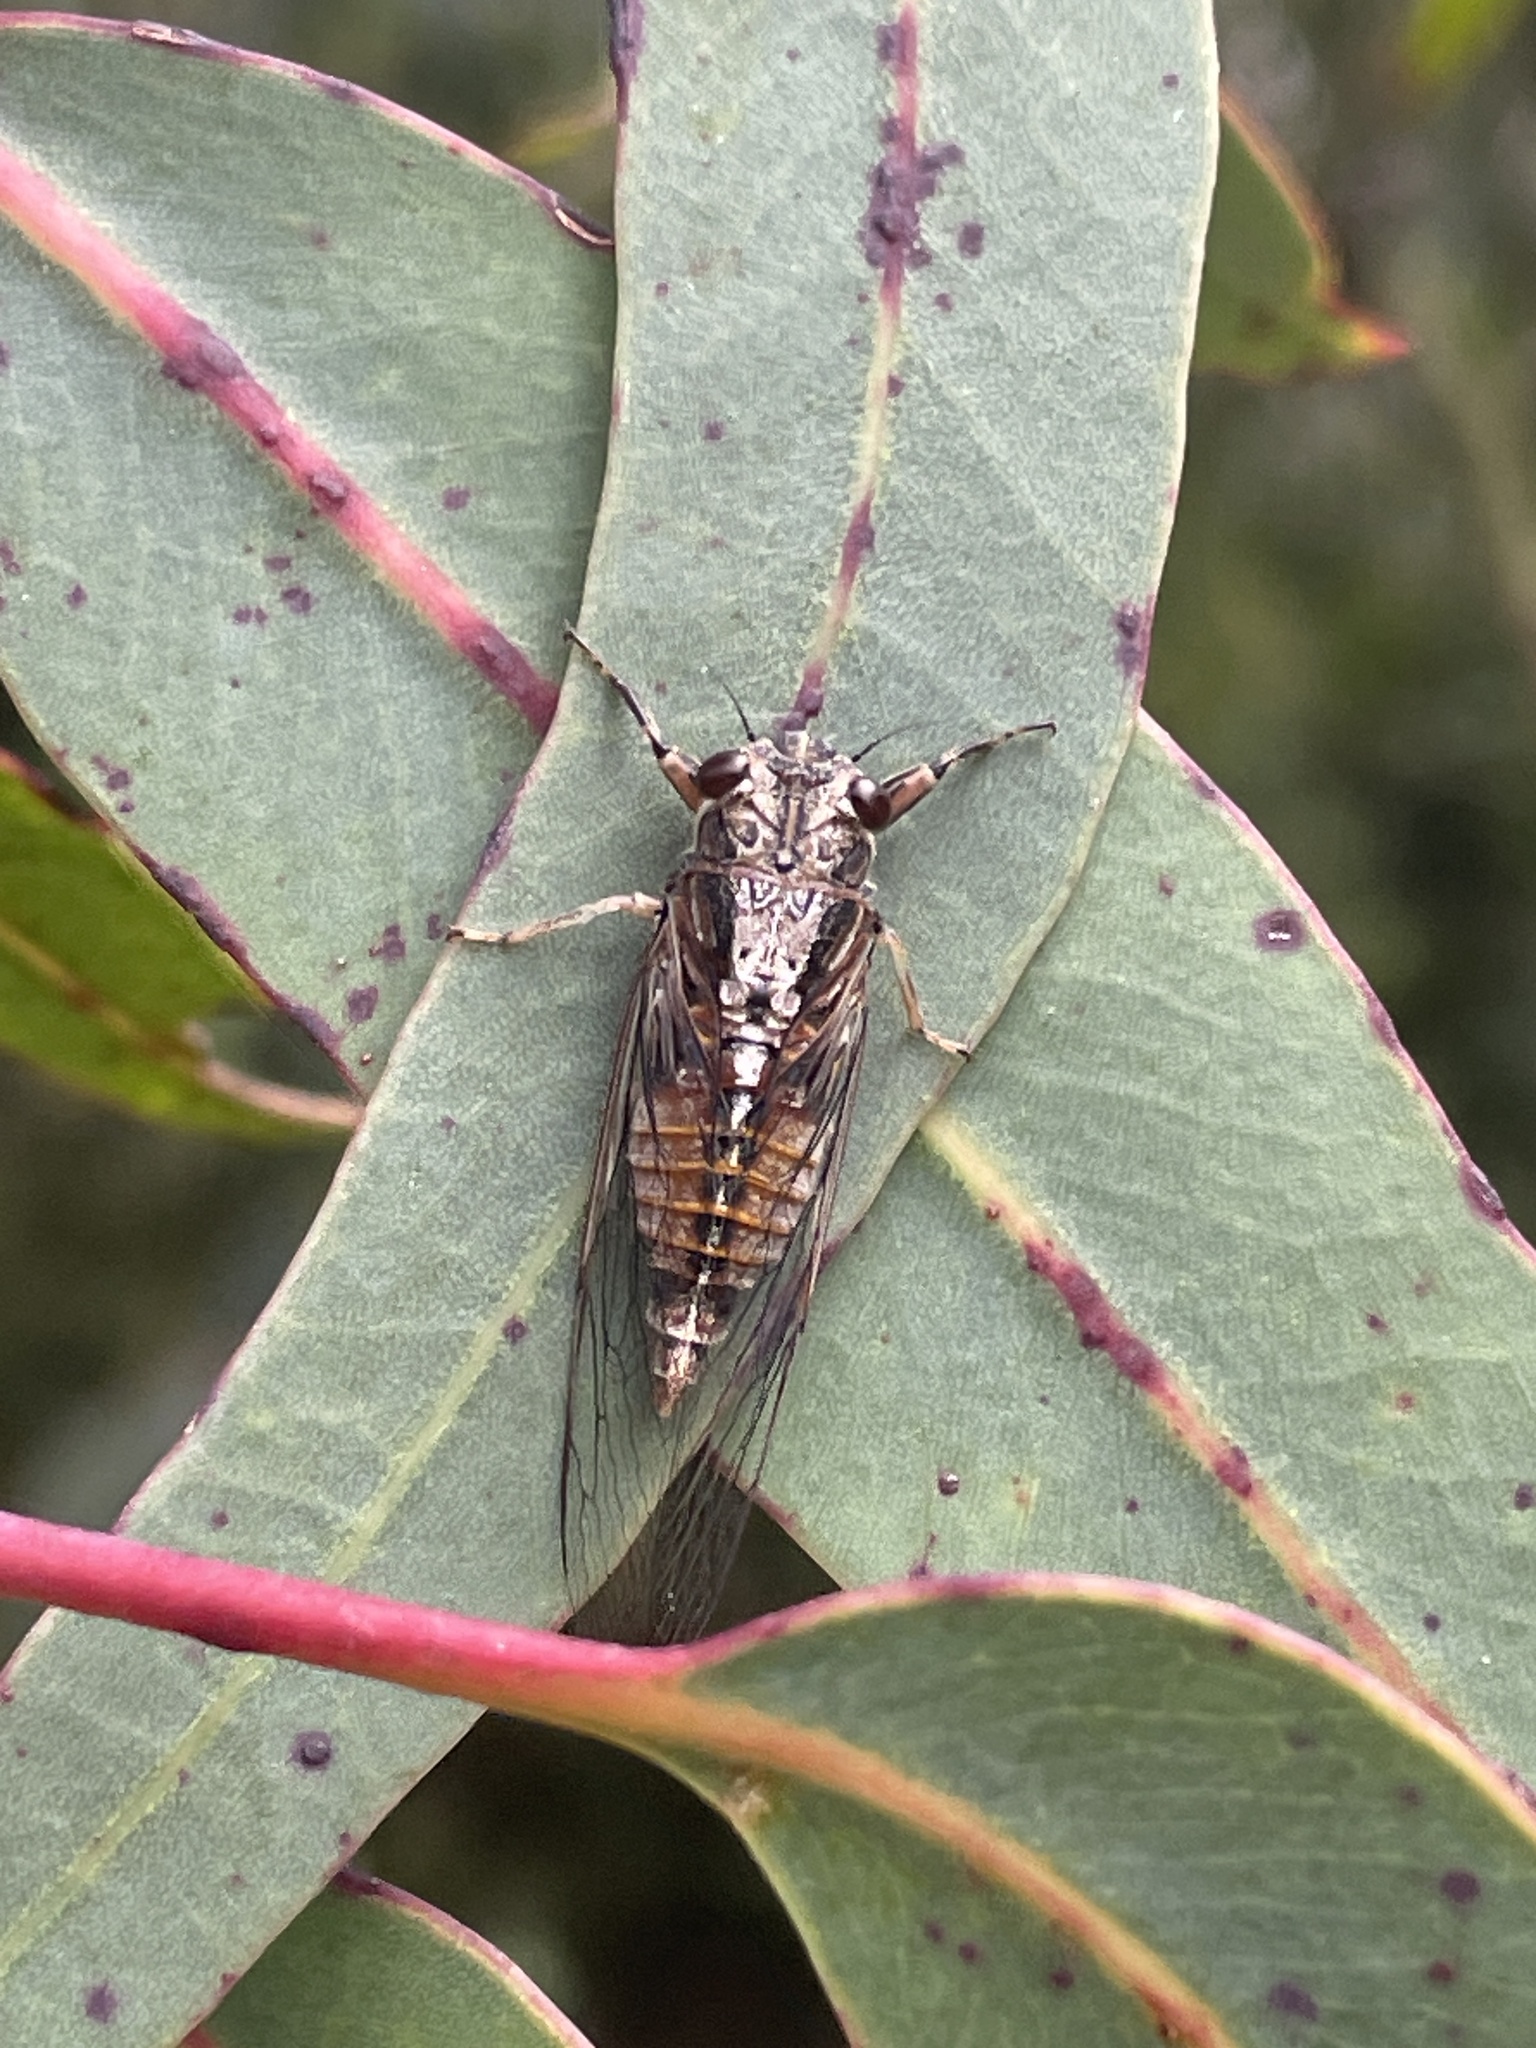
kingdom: Animalia
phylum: Arthropoda
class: Insecta
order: Hemiptera
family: Cicadidae
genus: Yoyetta
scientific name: Yoyetta celis
